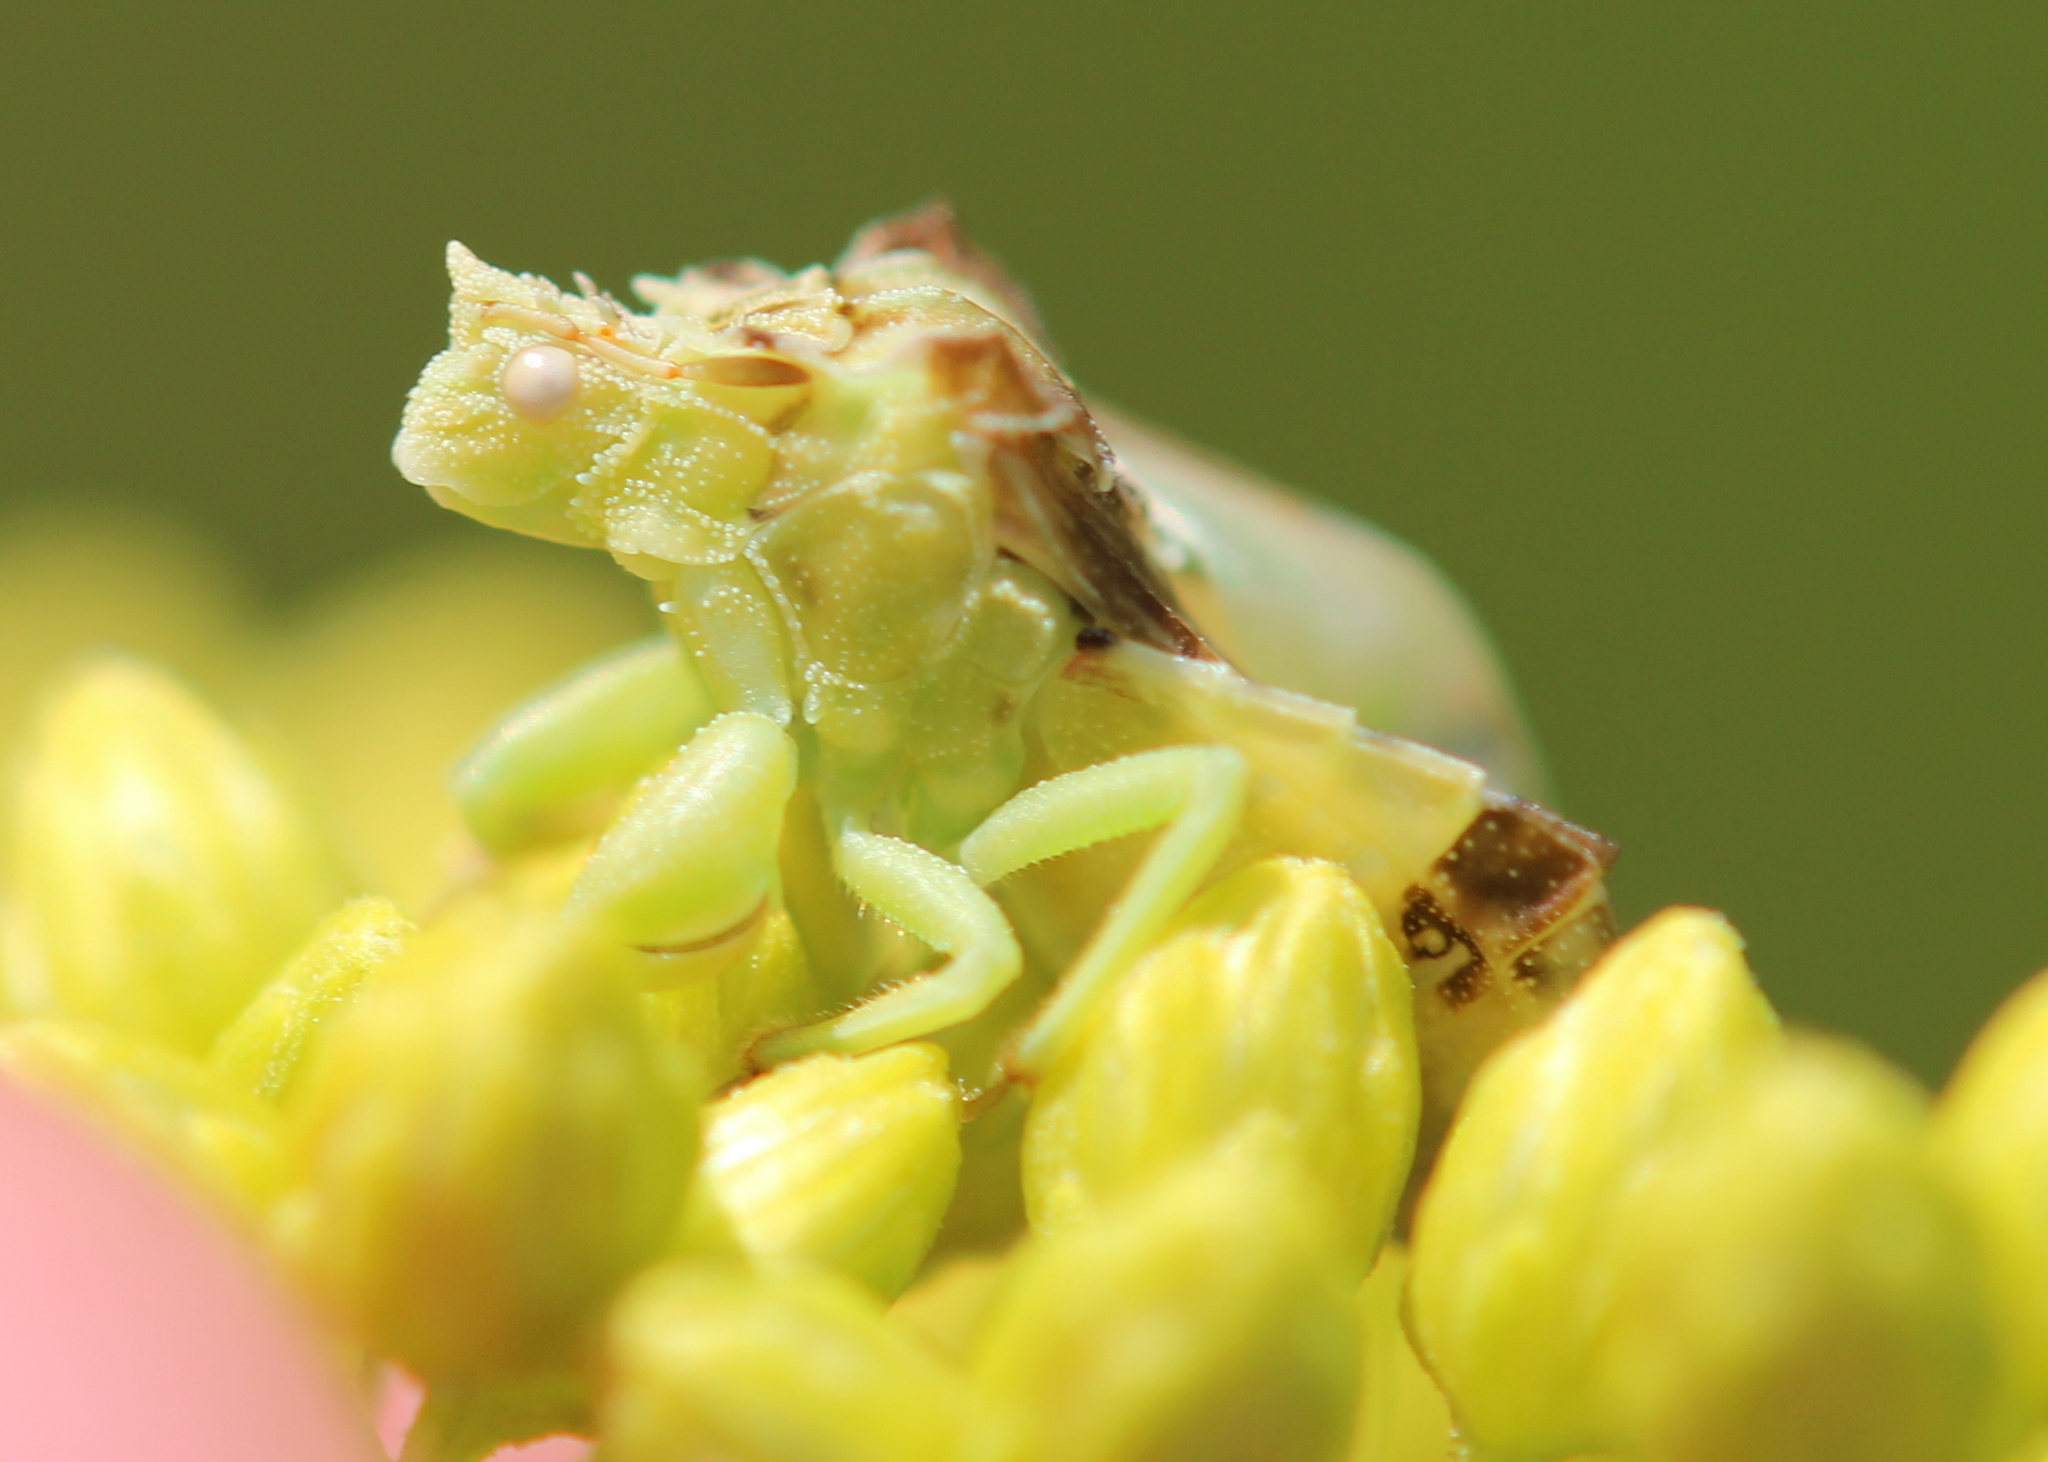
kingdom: Animalia
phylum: Arthropoda
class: Insecta
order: Hemiptera
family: Reduviidae
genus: Phymata
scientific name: Phymata americana
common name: Jagged ambush bug
